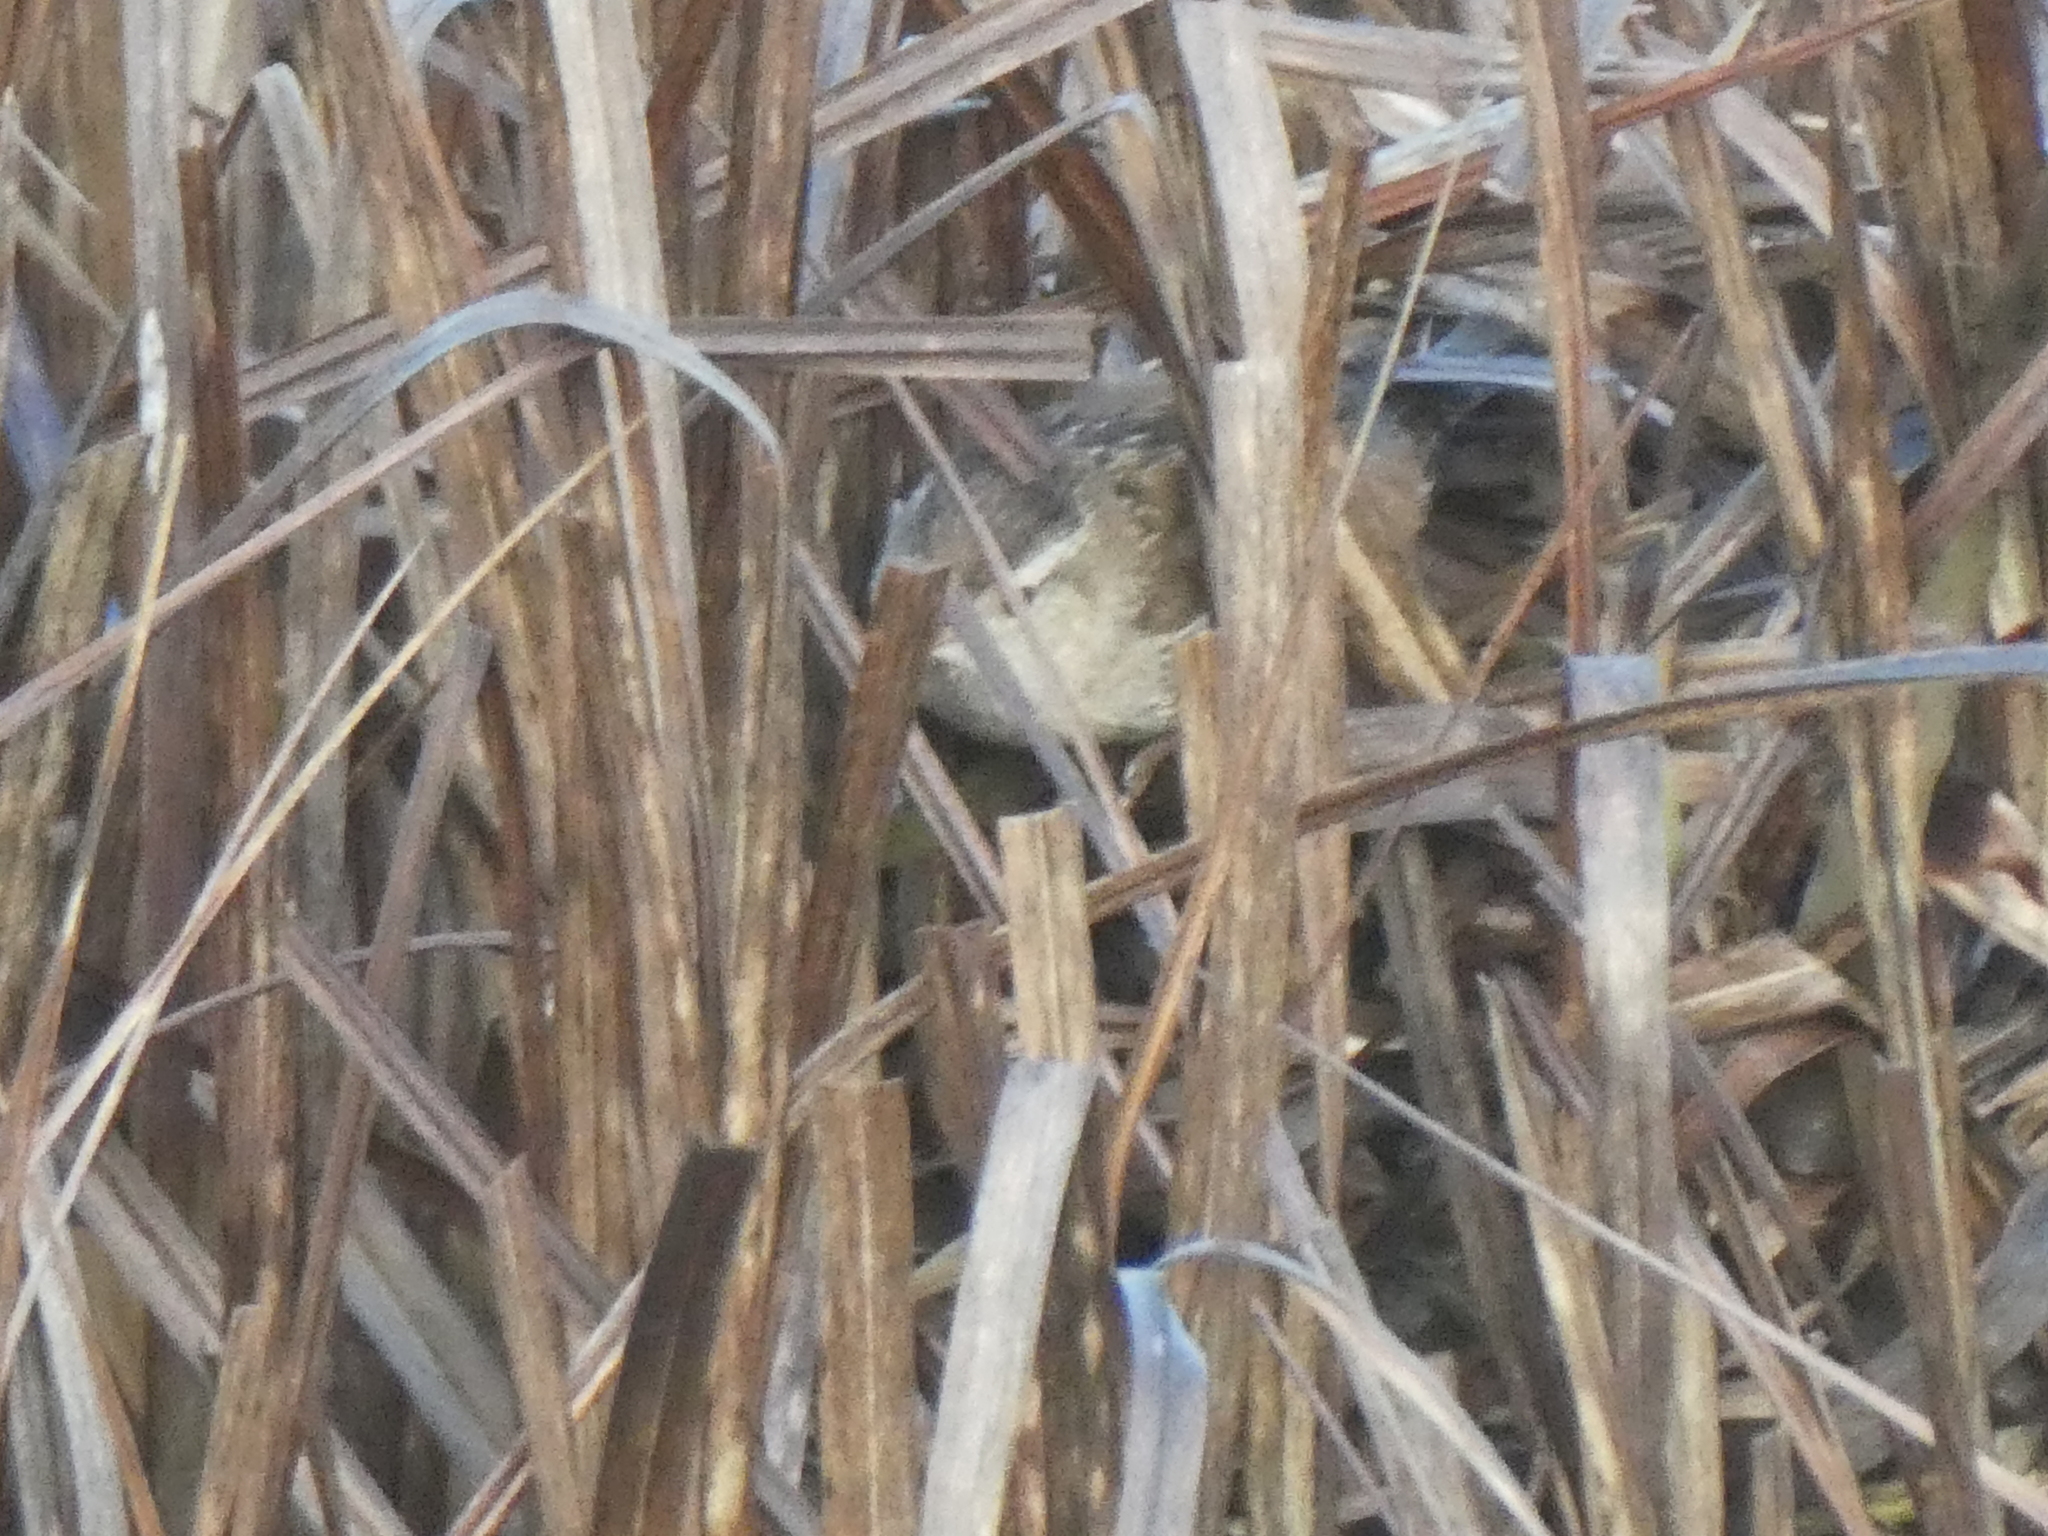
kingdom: Animalia
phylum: Chordata
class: Aves
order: Passeriformes
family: Troglodytidae
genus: Cistothorus
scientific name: Cistothorus palustris
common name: Marsh wren
